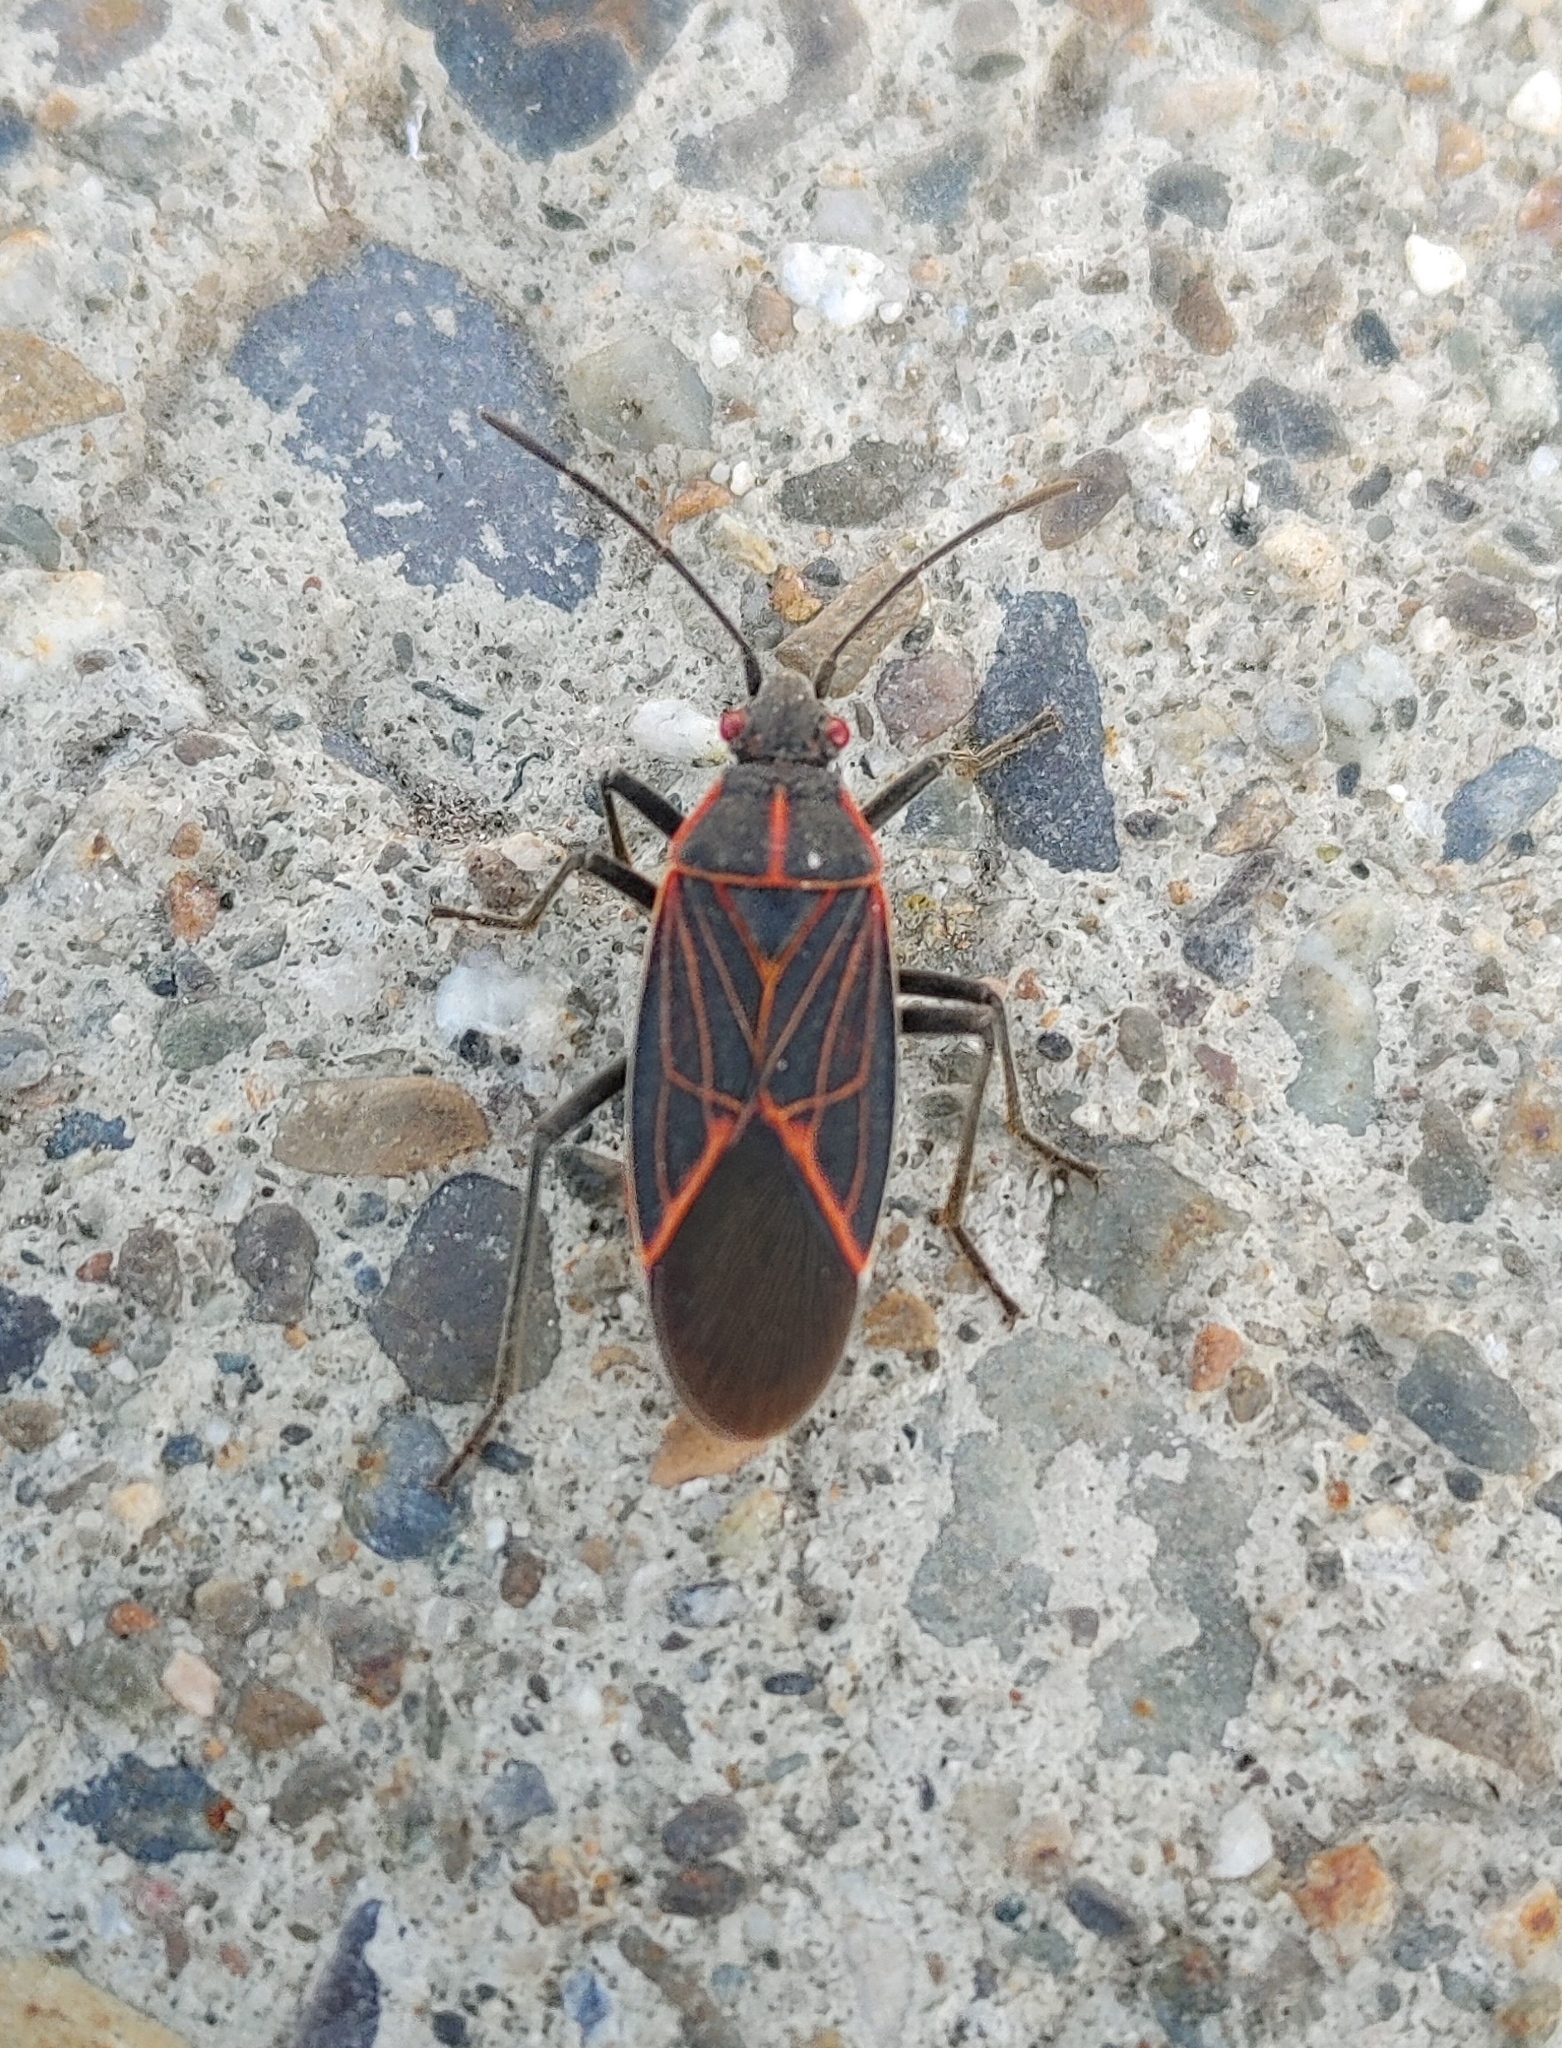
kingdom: Animalia
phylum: Arthropoda
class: Insecta
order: Hemiptera
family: Rhopalidae
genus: Boisea
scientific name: Boisea rubrolineata
